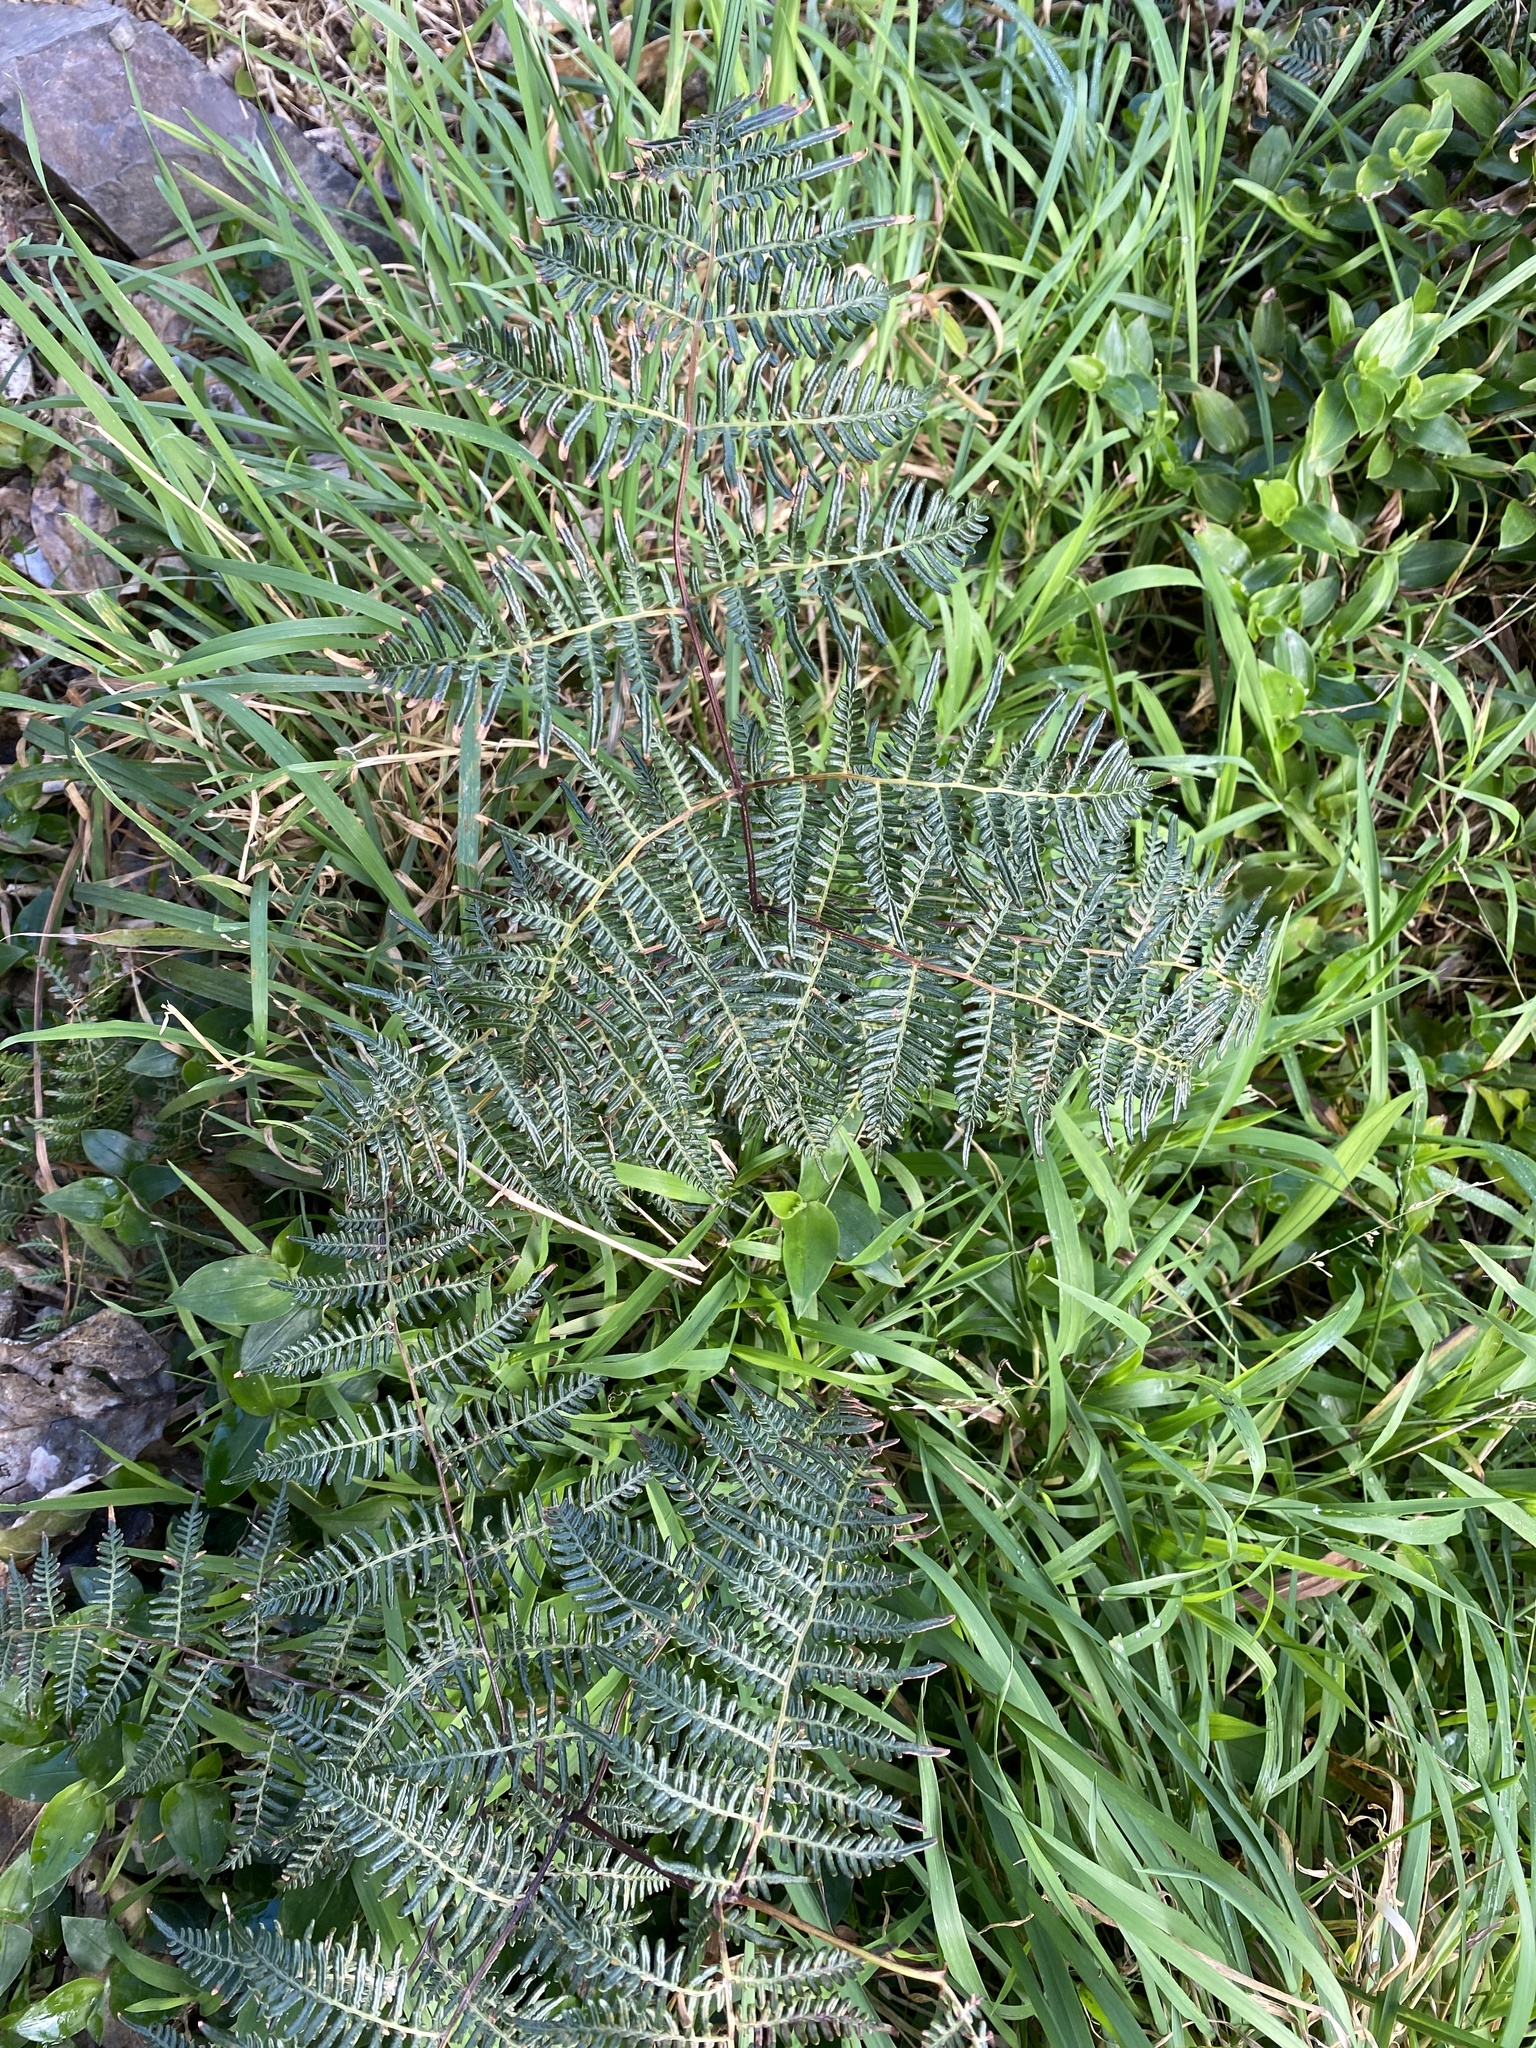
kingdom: Plantae
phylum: Tracheophyta
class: Polypodiopsida
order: Polypodiales
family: Dennstaedtiaceae
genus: Pteridium
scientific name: Pteridium esculentum
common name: Bracken fern
